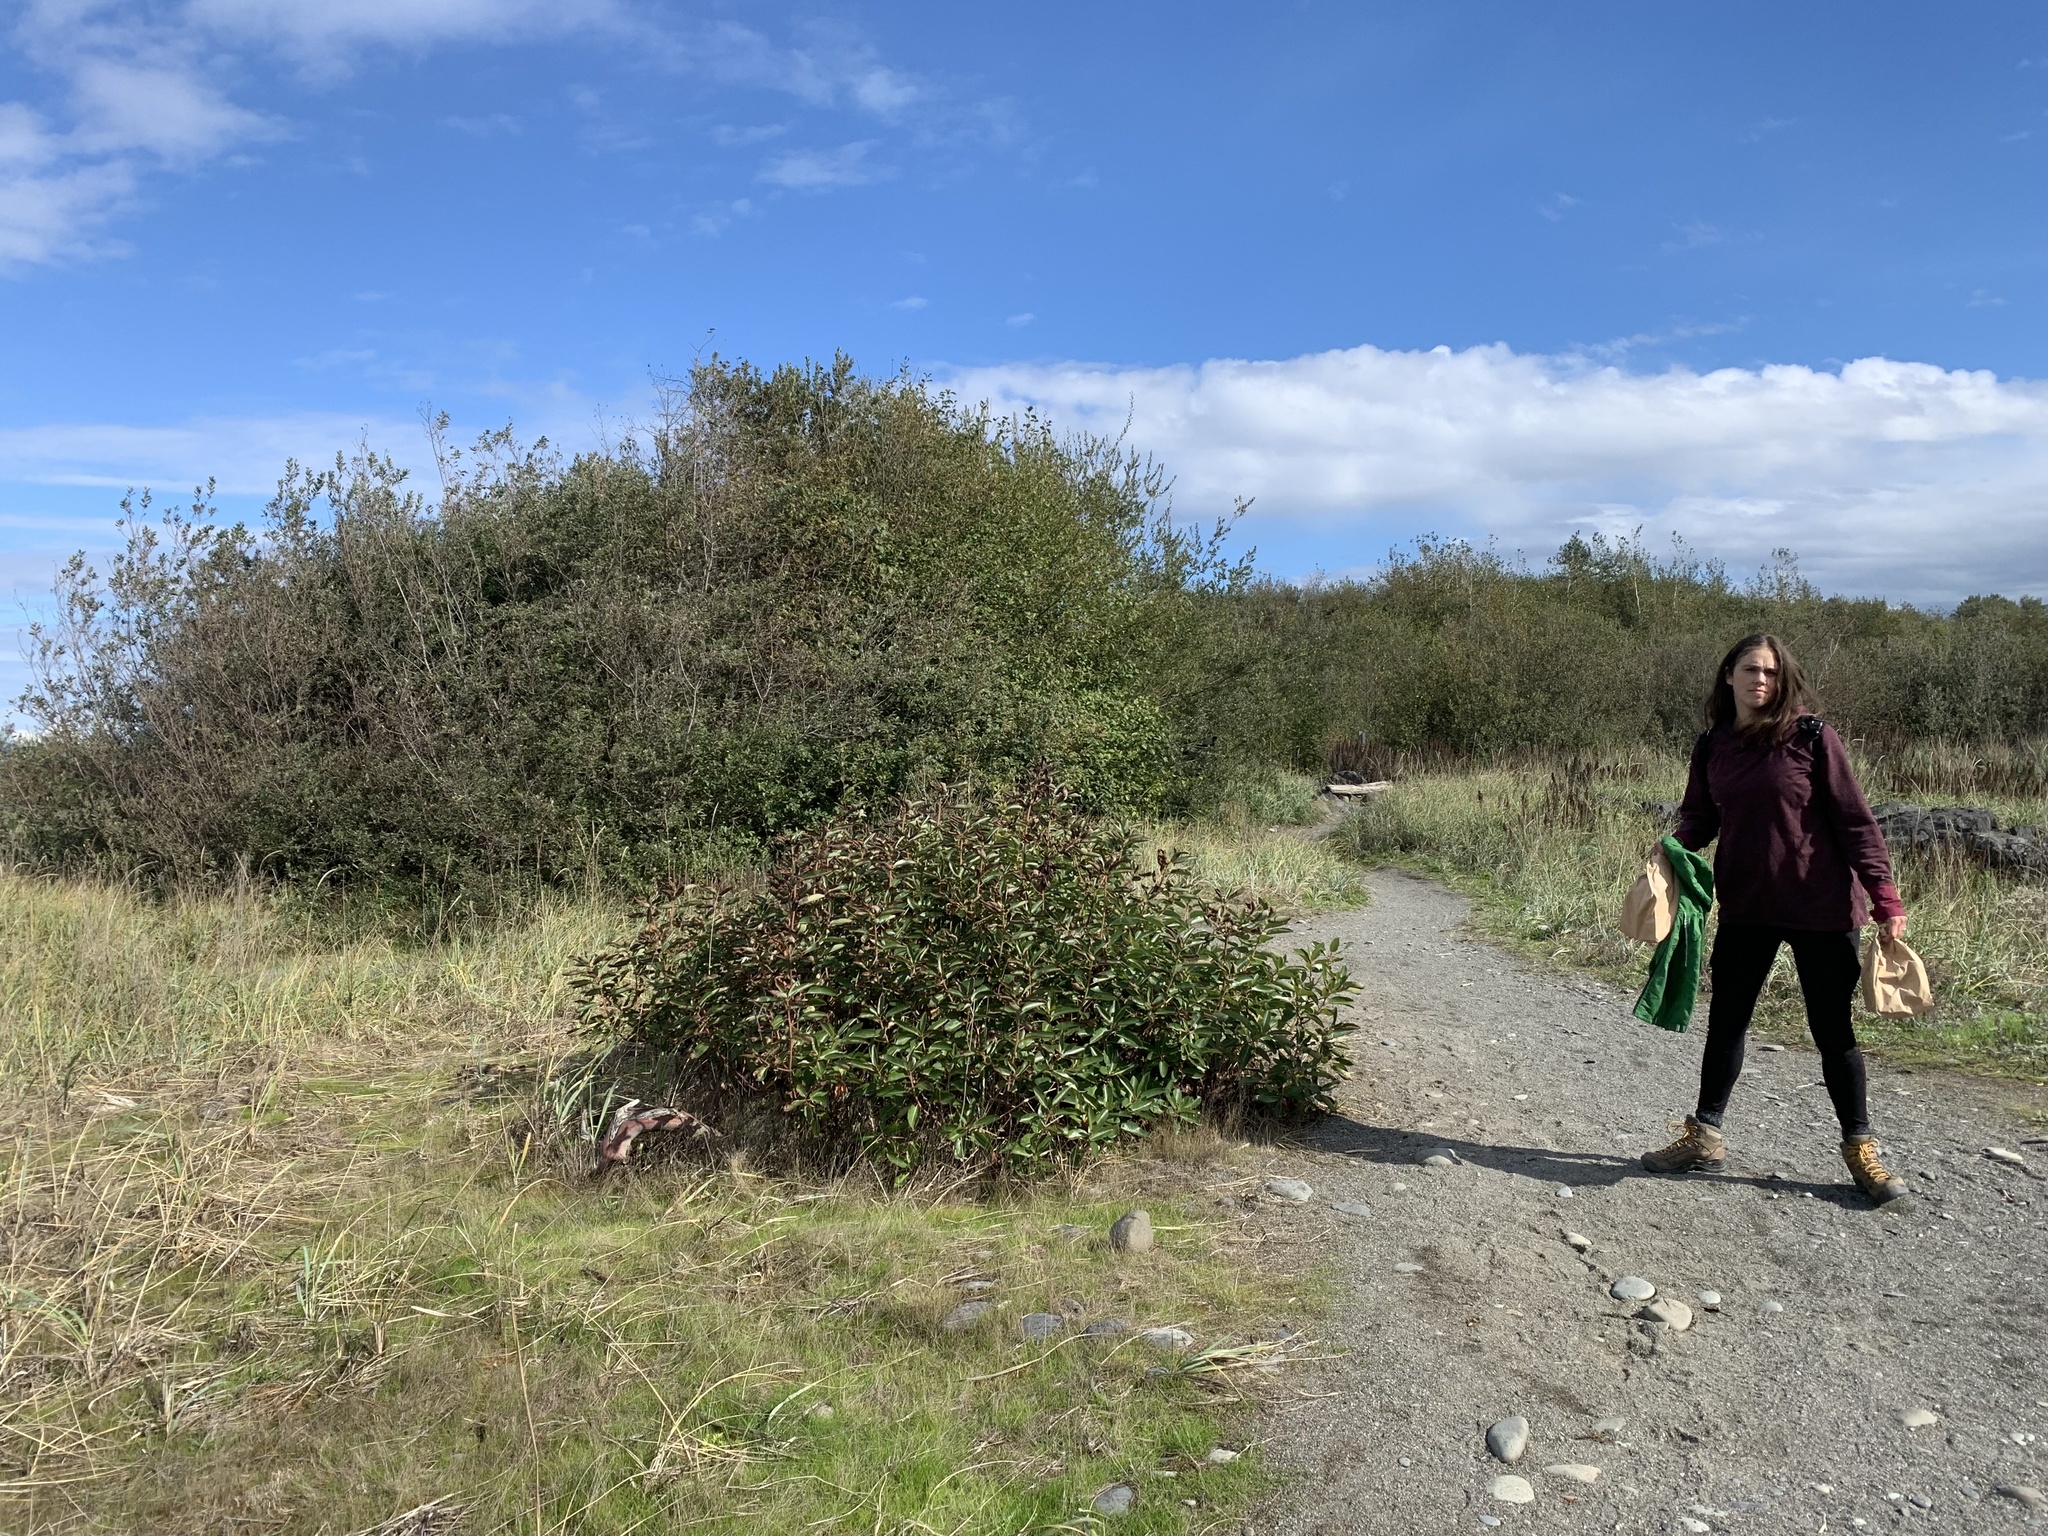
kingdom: Plantae
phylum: Tracheophyta
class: Magnoliopsida
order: Ericales
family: Ericaceae
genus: Arbutus
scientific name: Arbutus menziesii
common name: Pacific madrone
